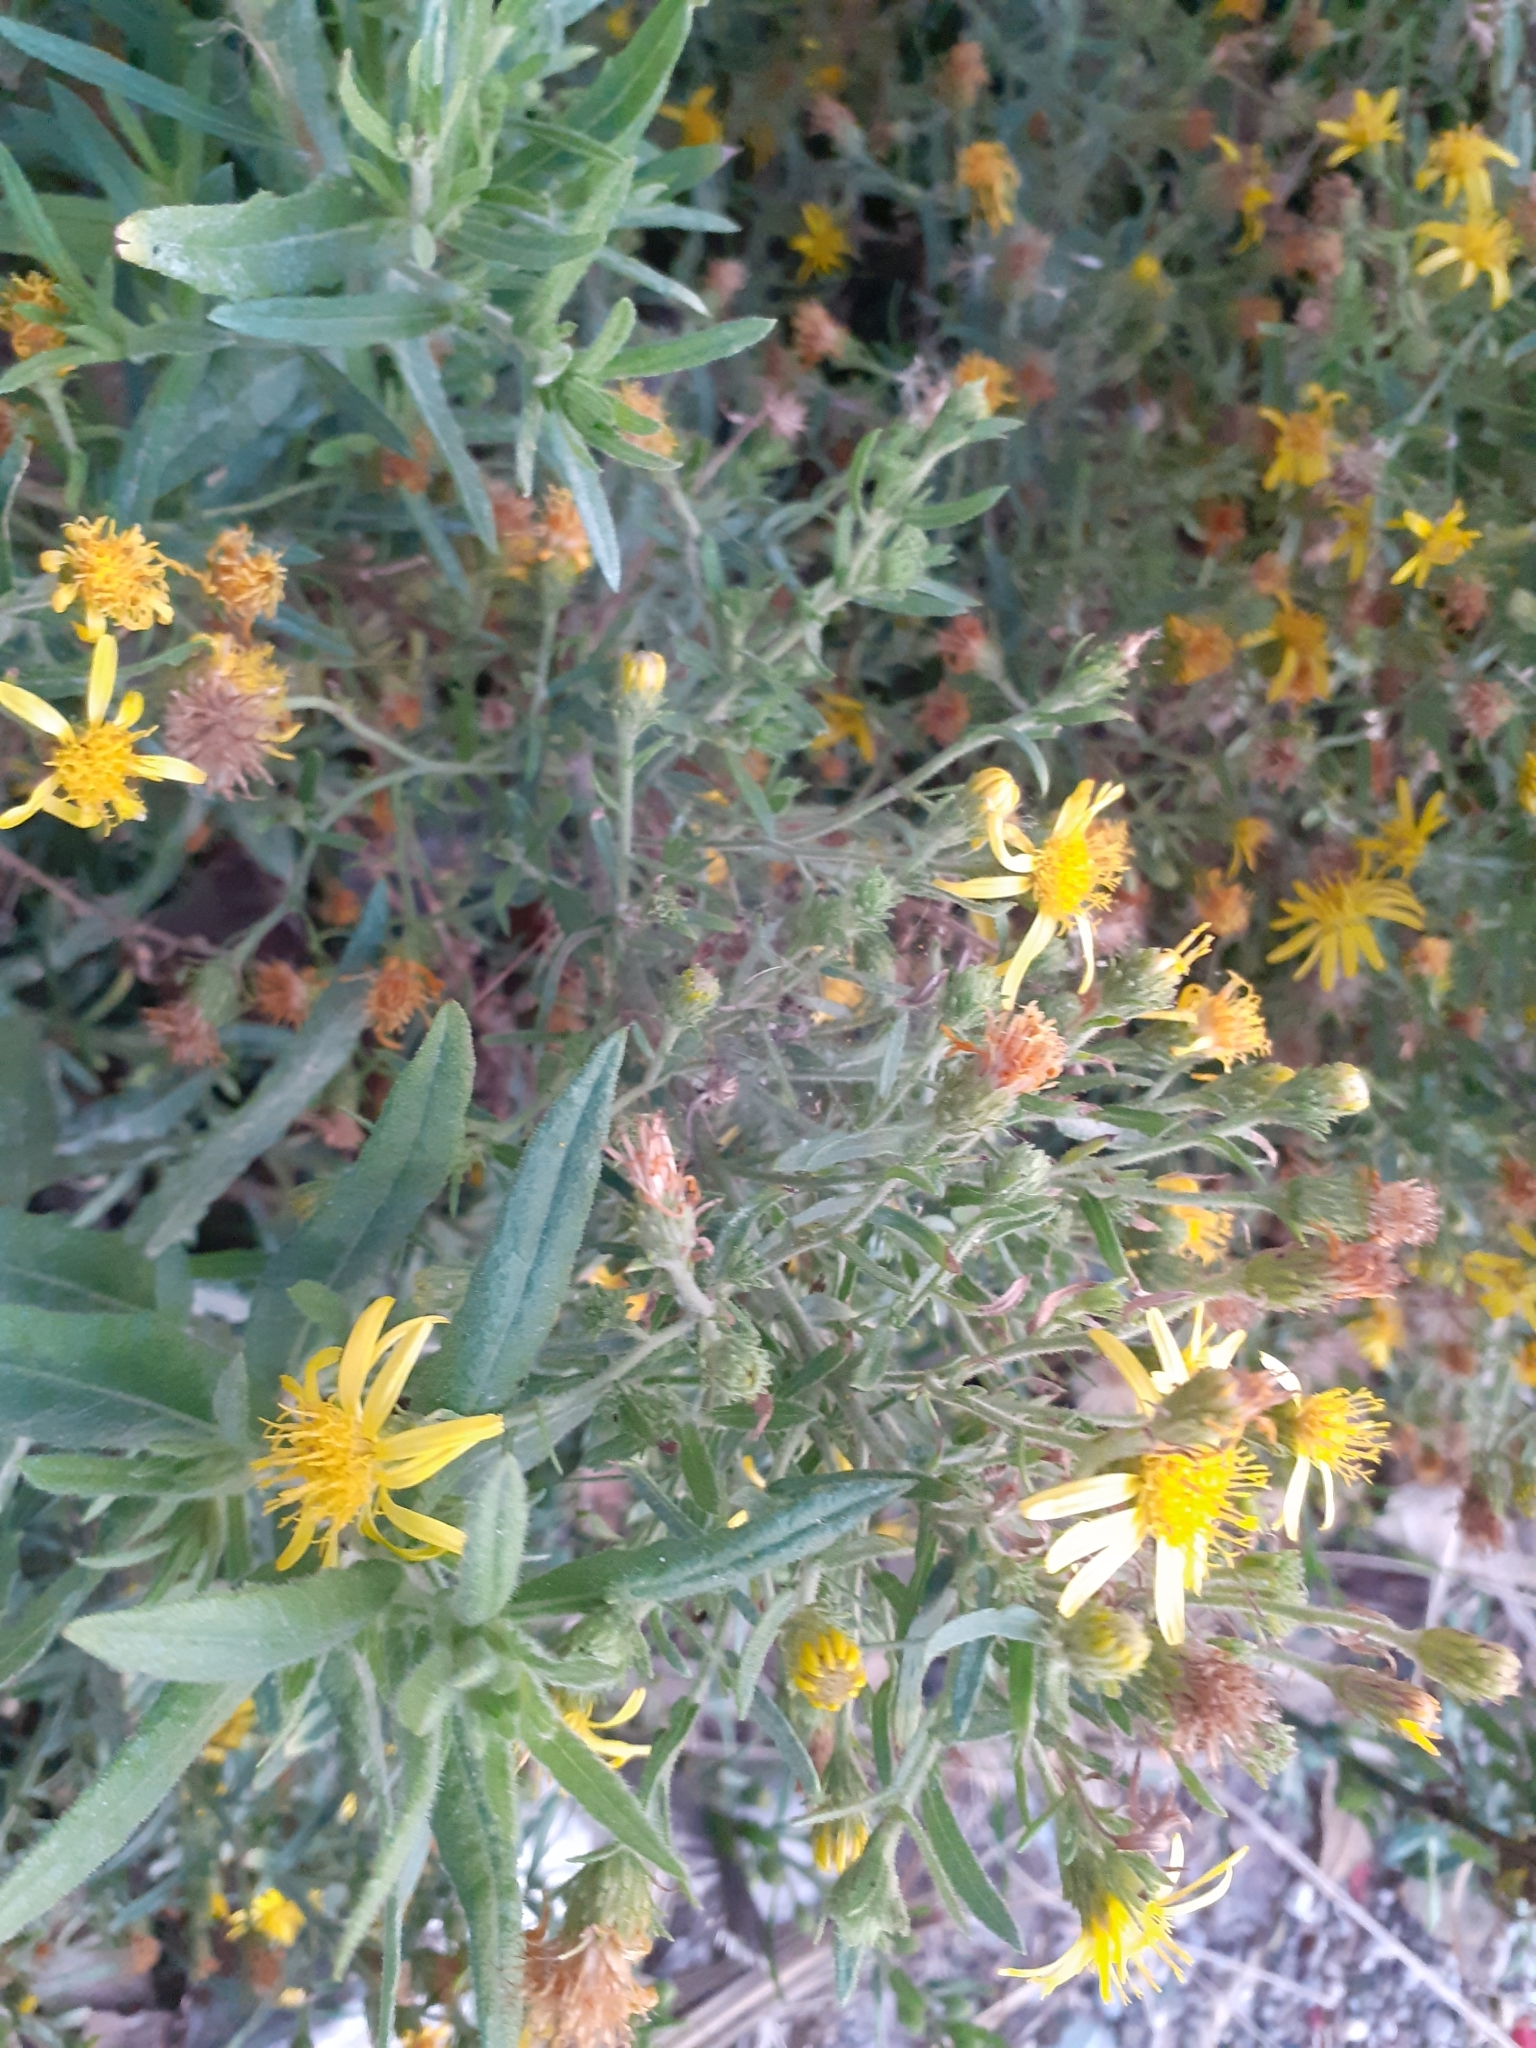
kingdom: Plantae
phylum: Tracheophyta
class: Magnoliopsida
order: Asterales
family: Asteraceae
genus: Dittrichia
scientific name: Dittrichia viscosa
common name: Woody fleabane
